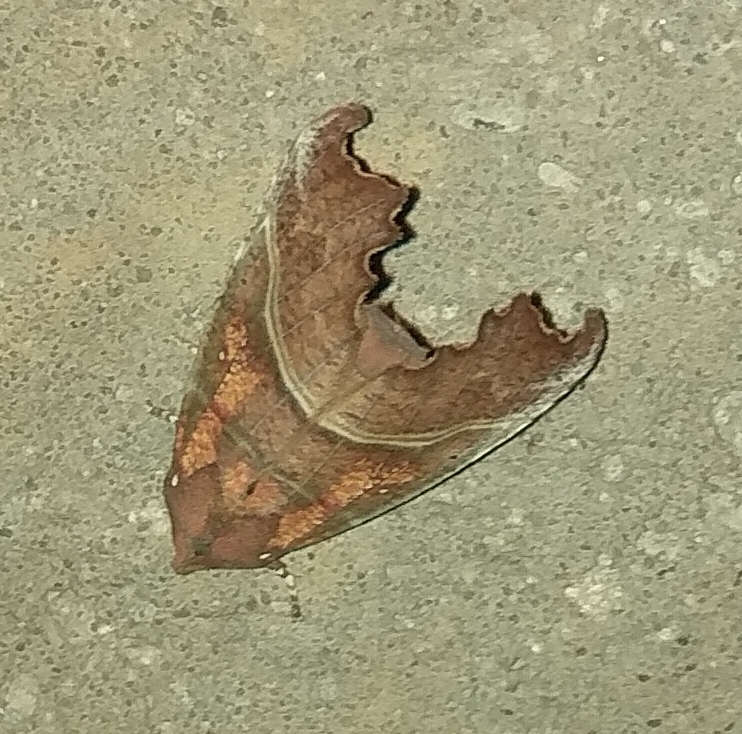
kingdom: Animalia
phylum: Arthropoda
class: Insecta
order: Lepidoptera
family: Erebidae
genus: Scoliopteryx
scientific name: Scoliopteryx libatrix
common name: Herald
